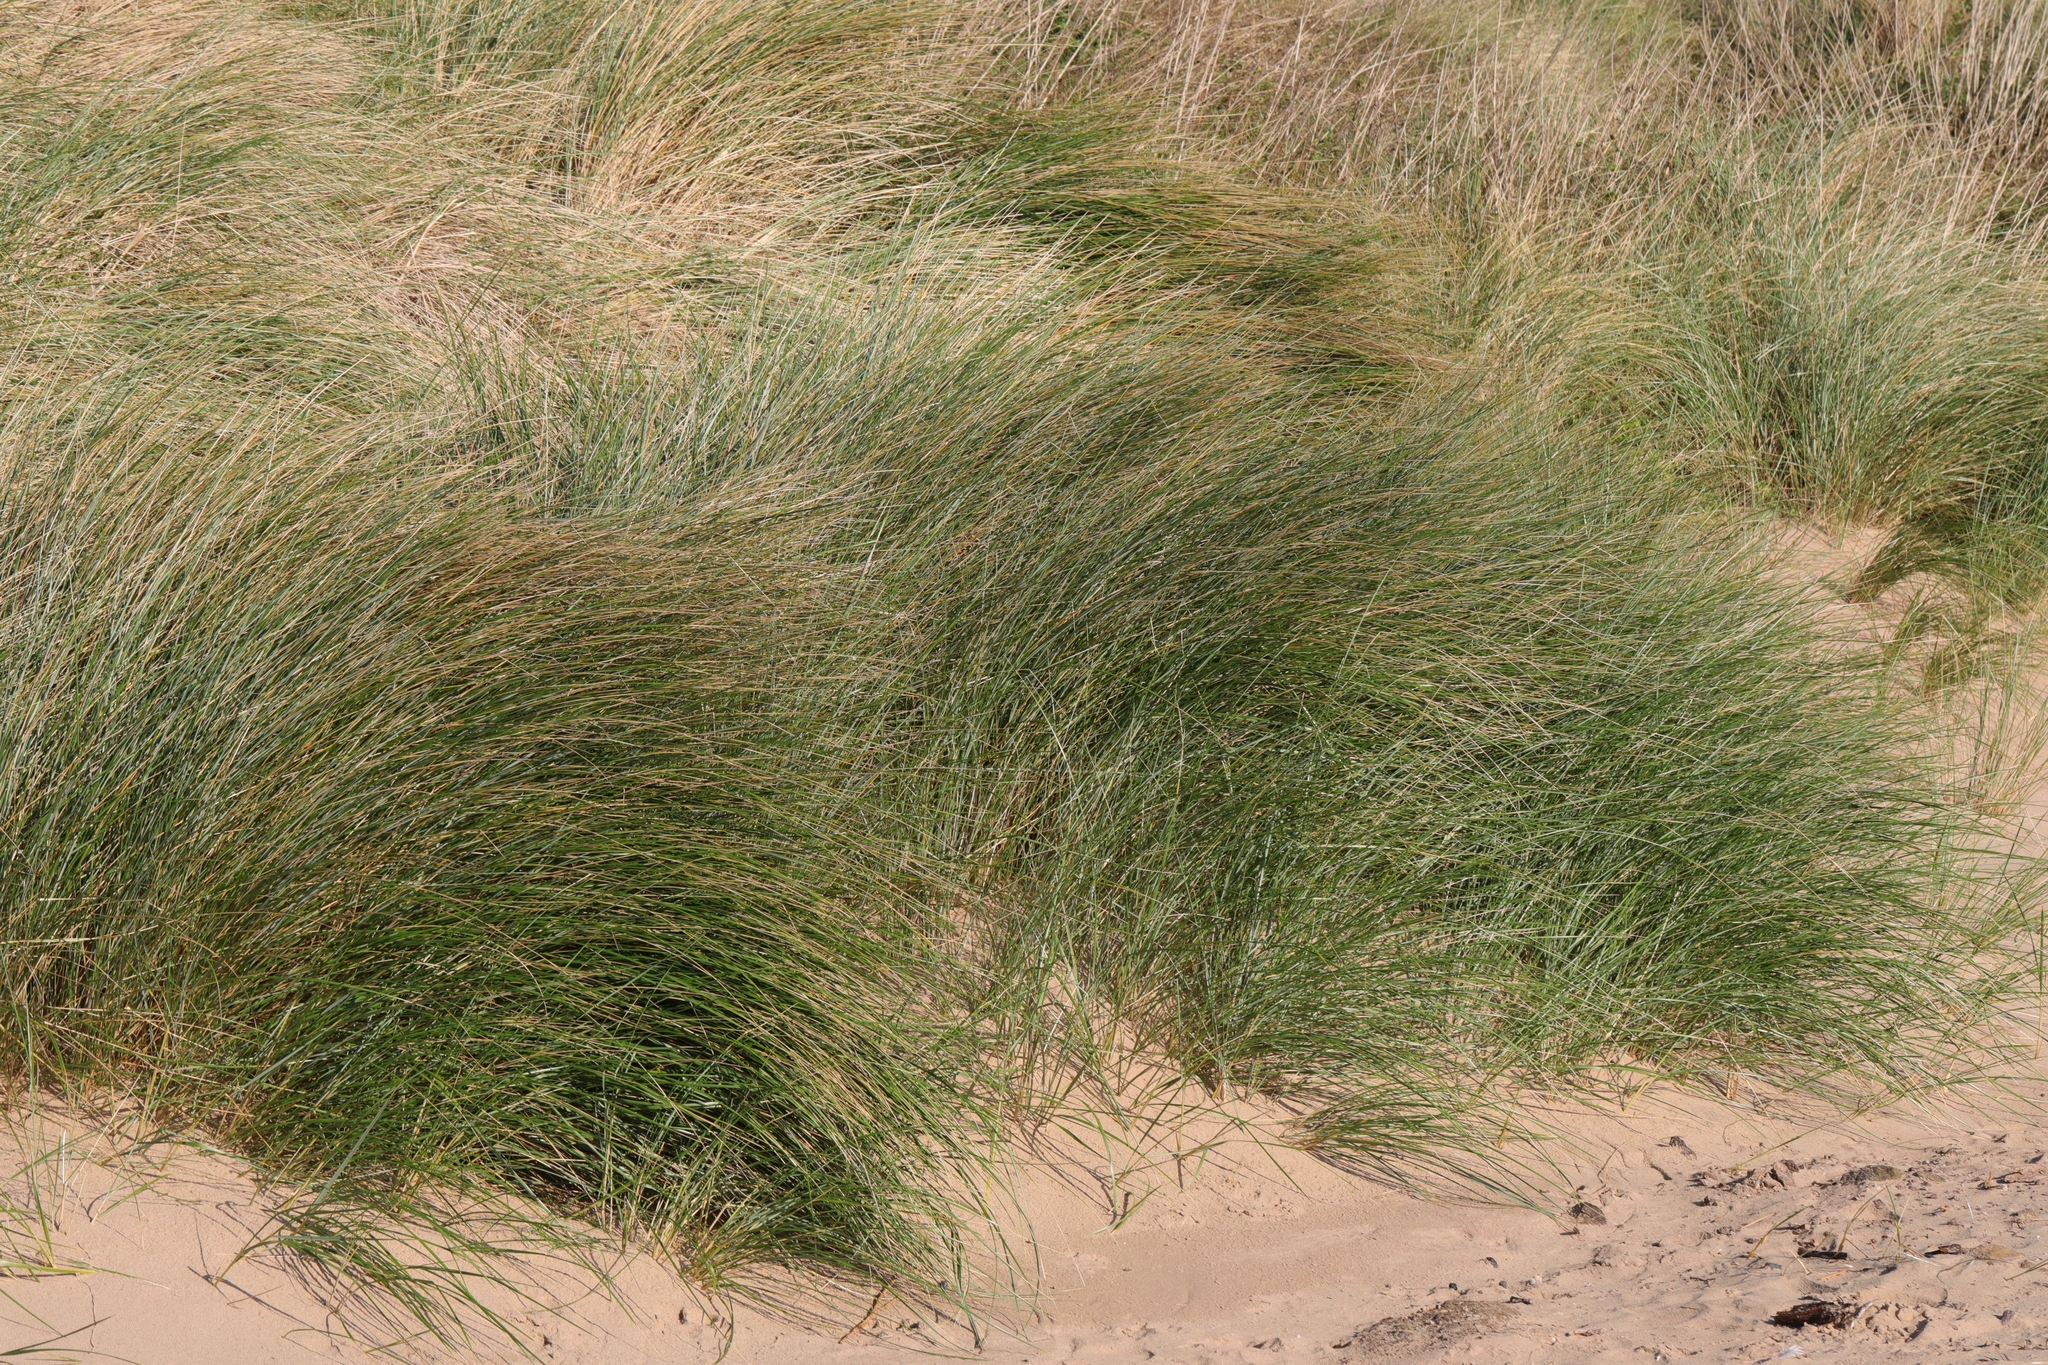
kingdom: Plantae
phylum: Tracheophyta
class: Liliopsida
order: Poales
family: Poaceae
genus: Calamagrostis
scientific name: Calamagrostis arenaria
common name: European beachgrass
